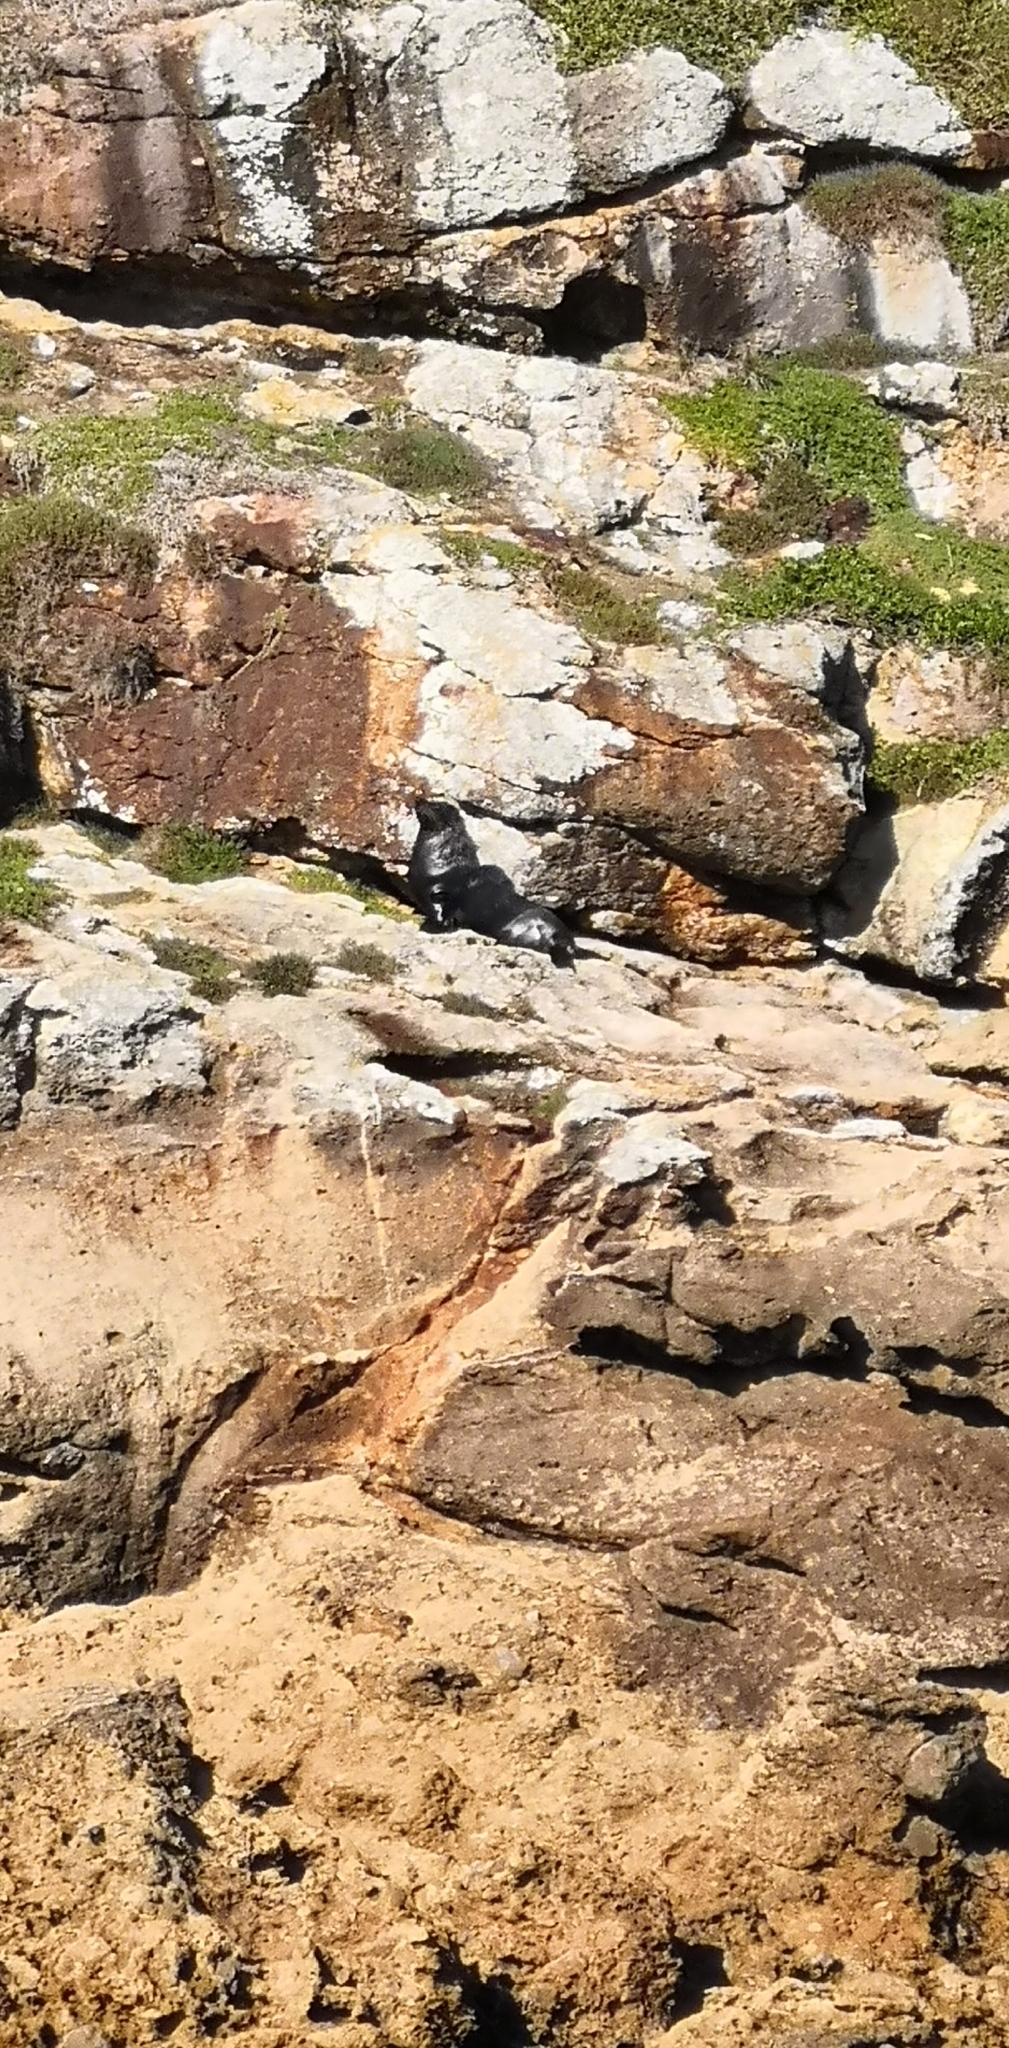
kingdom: Animalia
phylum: Chordata
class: Mammalia
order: Carnivora
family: Otariidae
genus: Arctocephalus
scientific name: Arctocephalus forsteri
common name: New zealand fur seal
